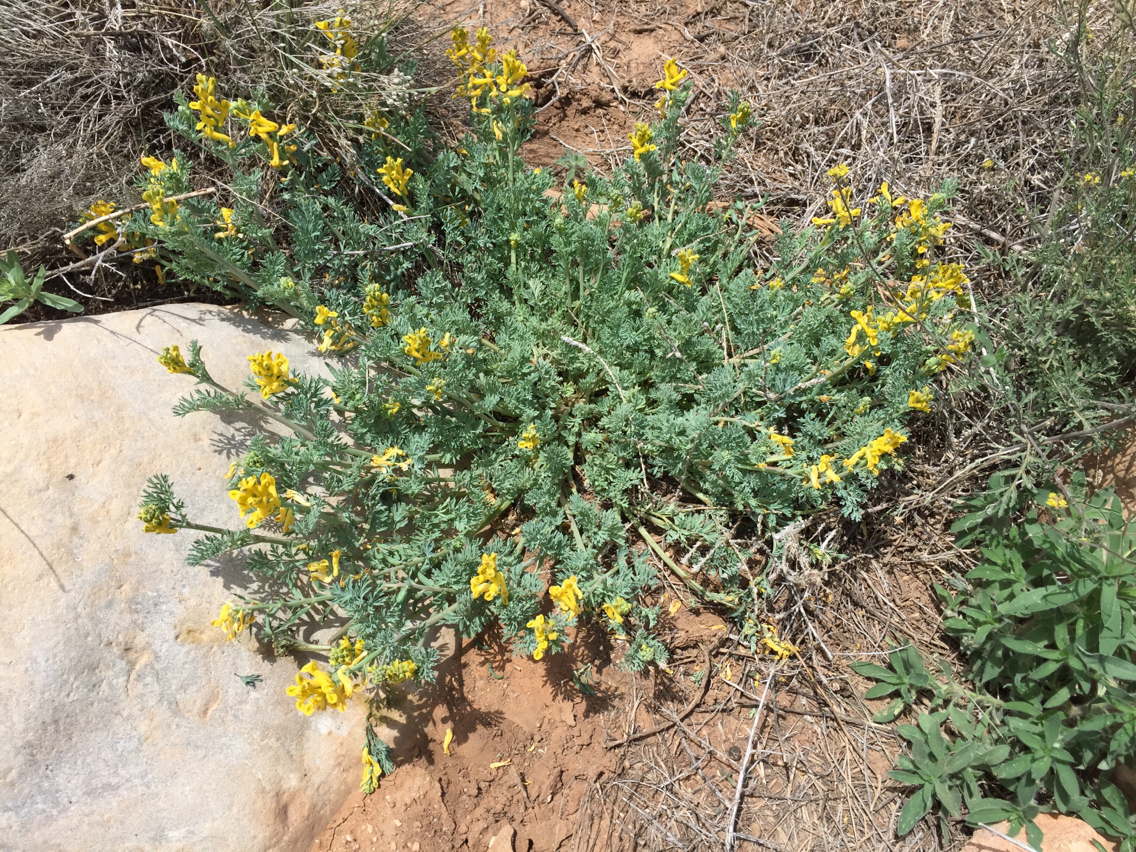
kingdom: Plantae
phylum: Tracheophyta
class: Magnoliopsida
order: Ranunculales
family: Papaveraceae
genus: Corydalis
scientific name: Corydalis aurea
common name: Golden corydalis
